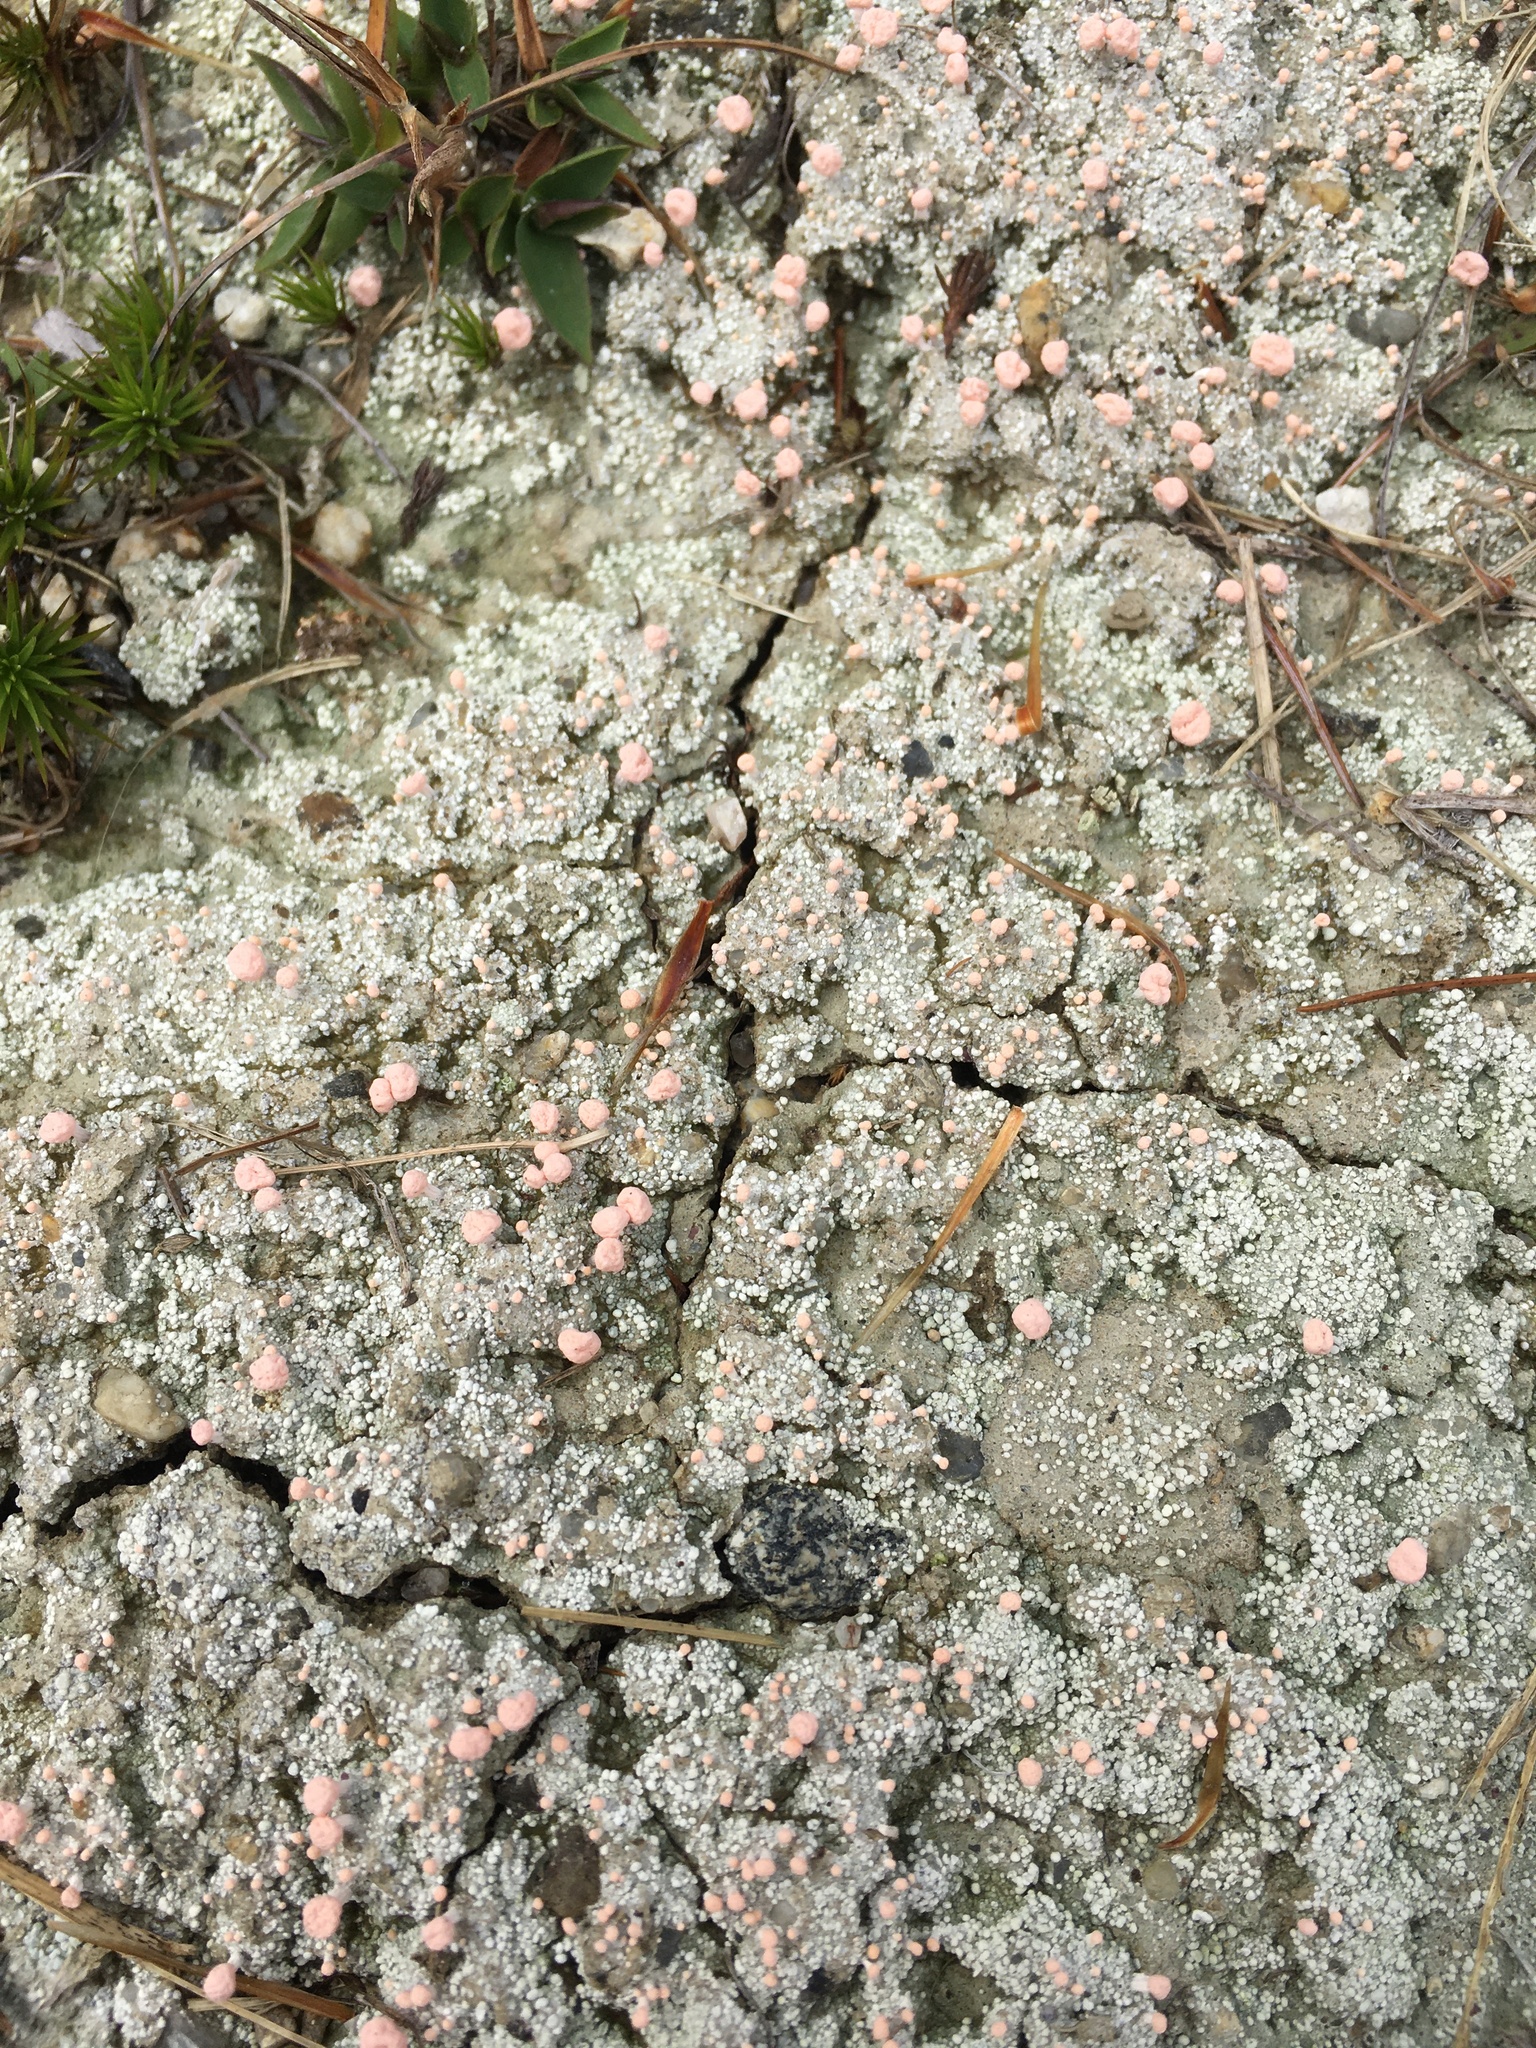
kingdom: Fungi
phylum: Ascomycota
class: Lecanoromycetes
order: Pertusariales
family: Icmadophilaceae
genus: Dibaeis
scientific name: Dibaeis baeomyces
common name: Pink earth lichen
